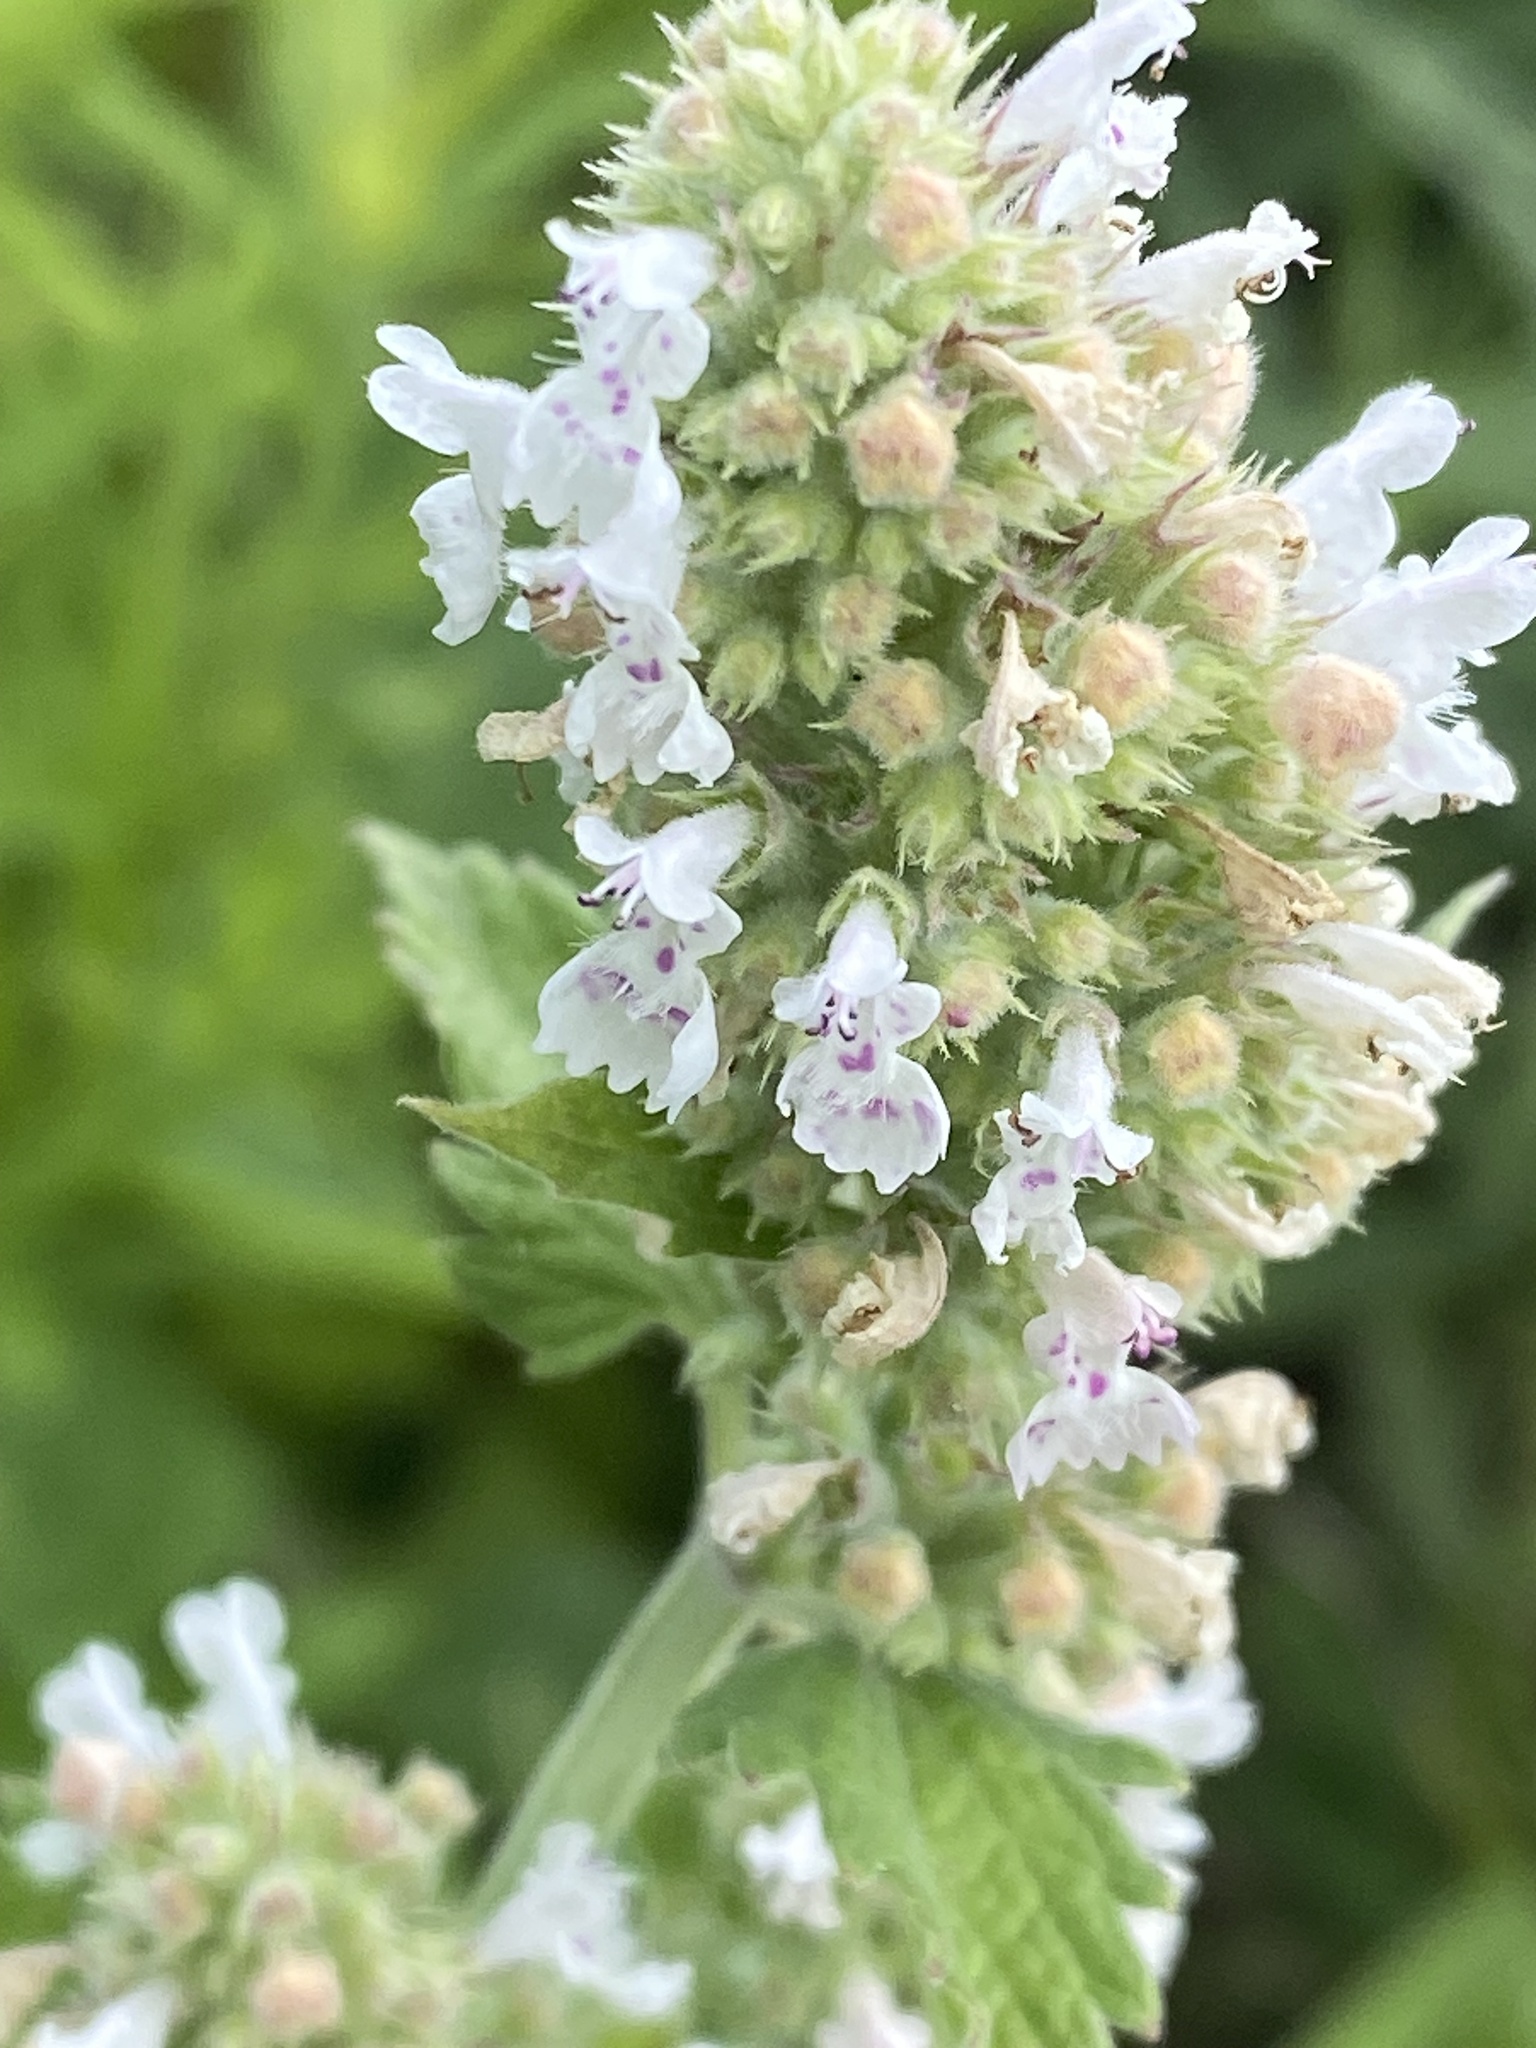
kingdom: Plantae
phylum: Tracheophyta
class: Magnoliopsida
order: Lamiales
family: Lamiaceae
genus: Nepeta
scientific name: Nepeta cataria
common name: Catnip
